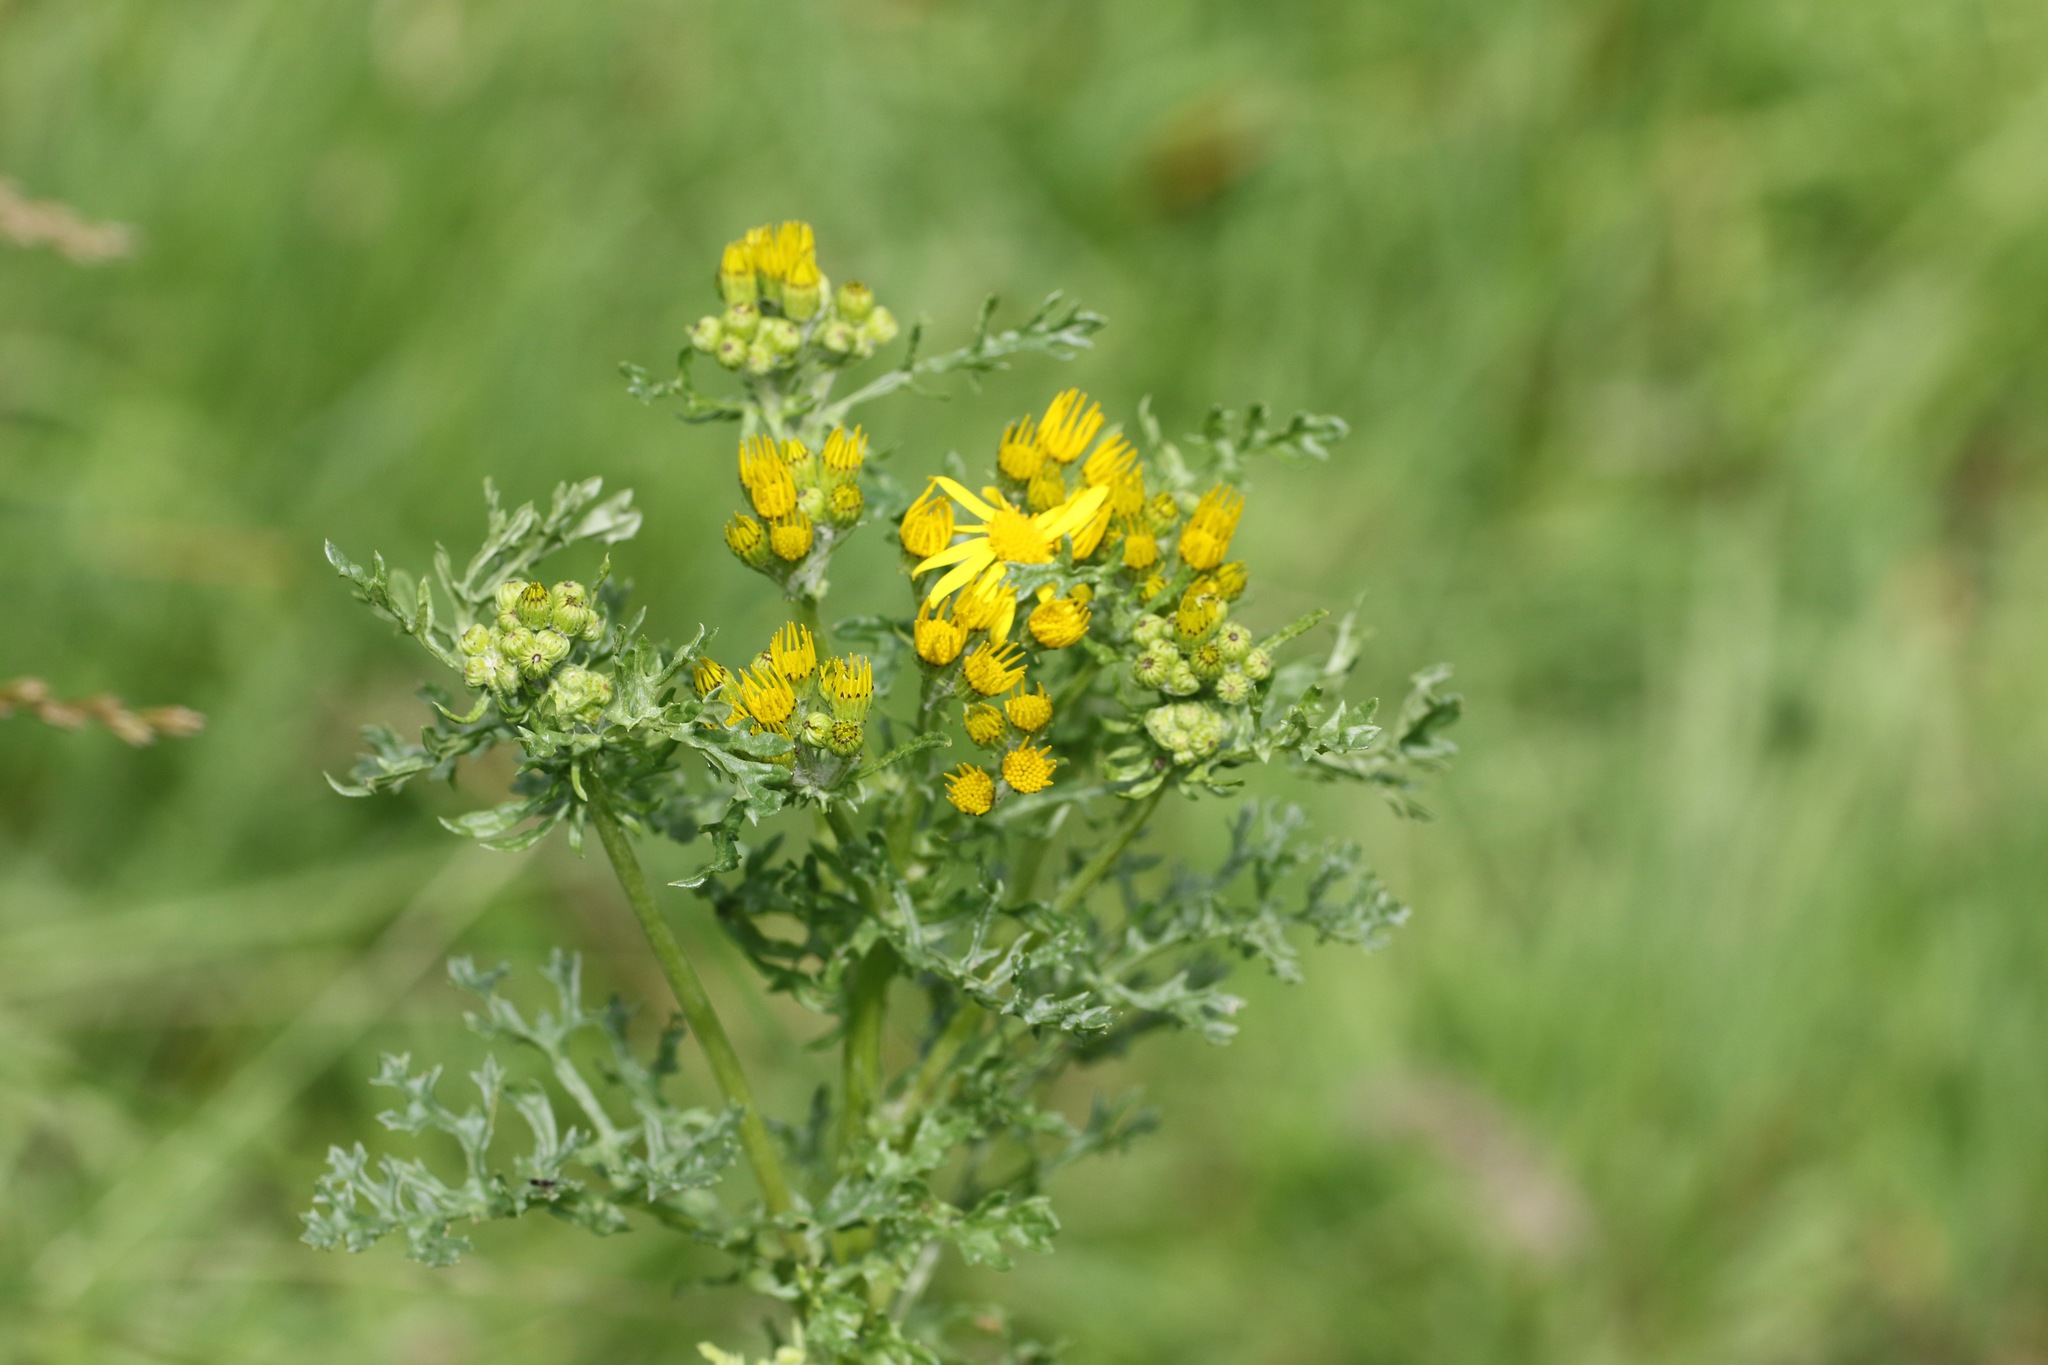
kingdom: Plantae
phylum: Tracheophyta
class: Magnoliopsida
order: Asterales
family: Asteraceae
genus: Jacobaea
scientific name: Jacobaea vulgaris
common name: Stinking willie
